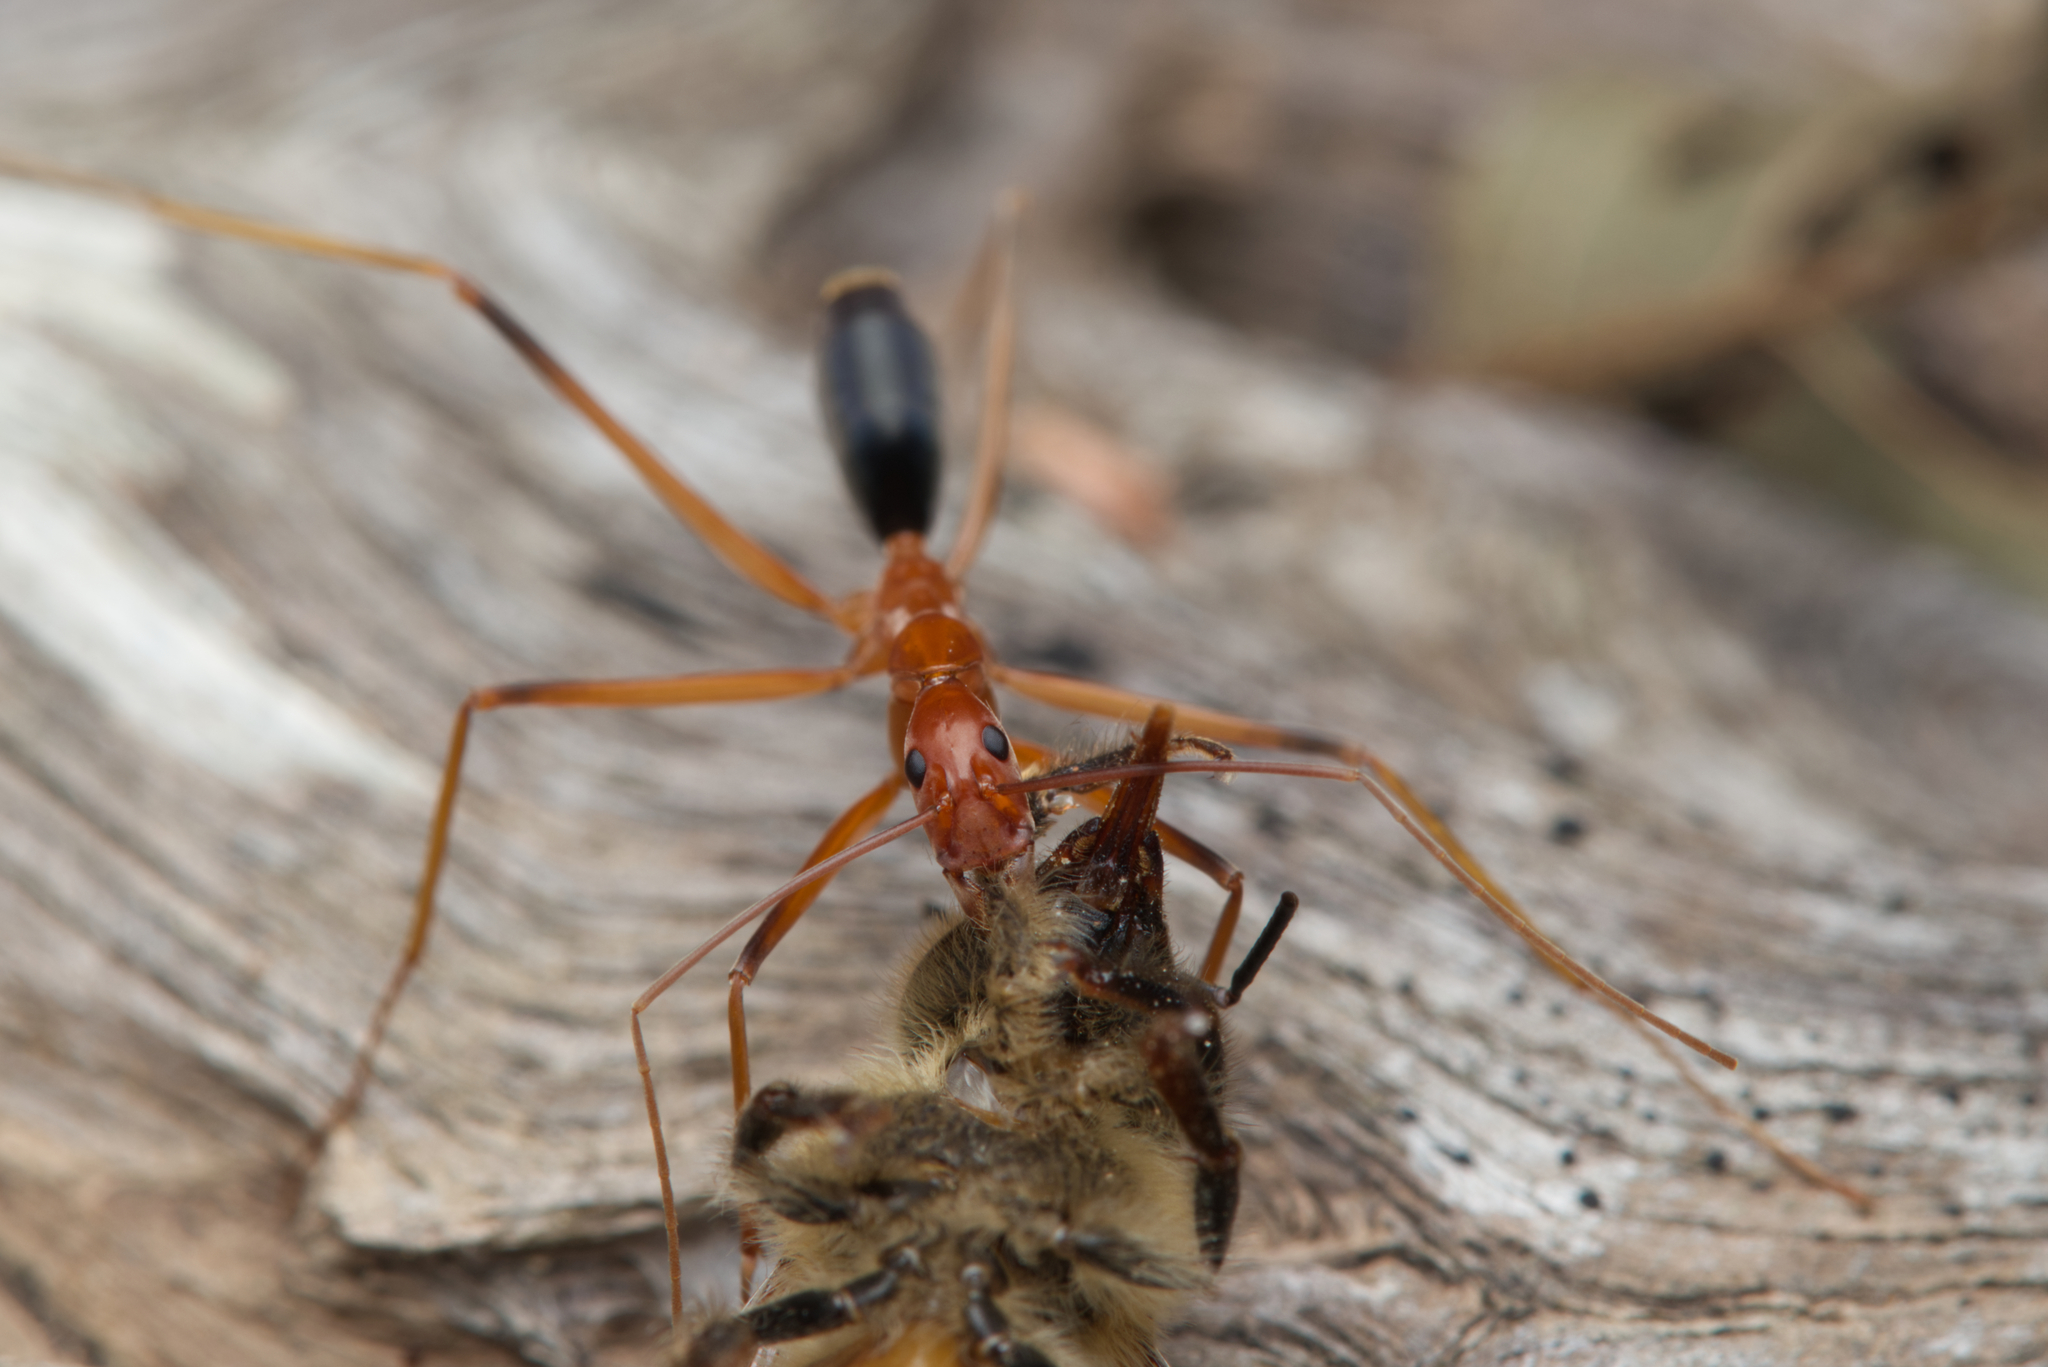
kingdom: Animalia
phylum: Arthropoda
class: Insecta
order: Hymenoptera
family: Formicidae
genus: Leptomyrmex
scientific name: Leptomyrmex rufipes
